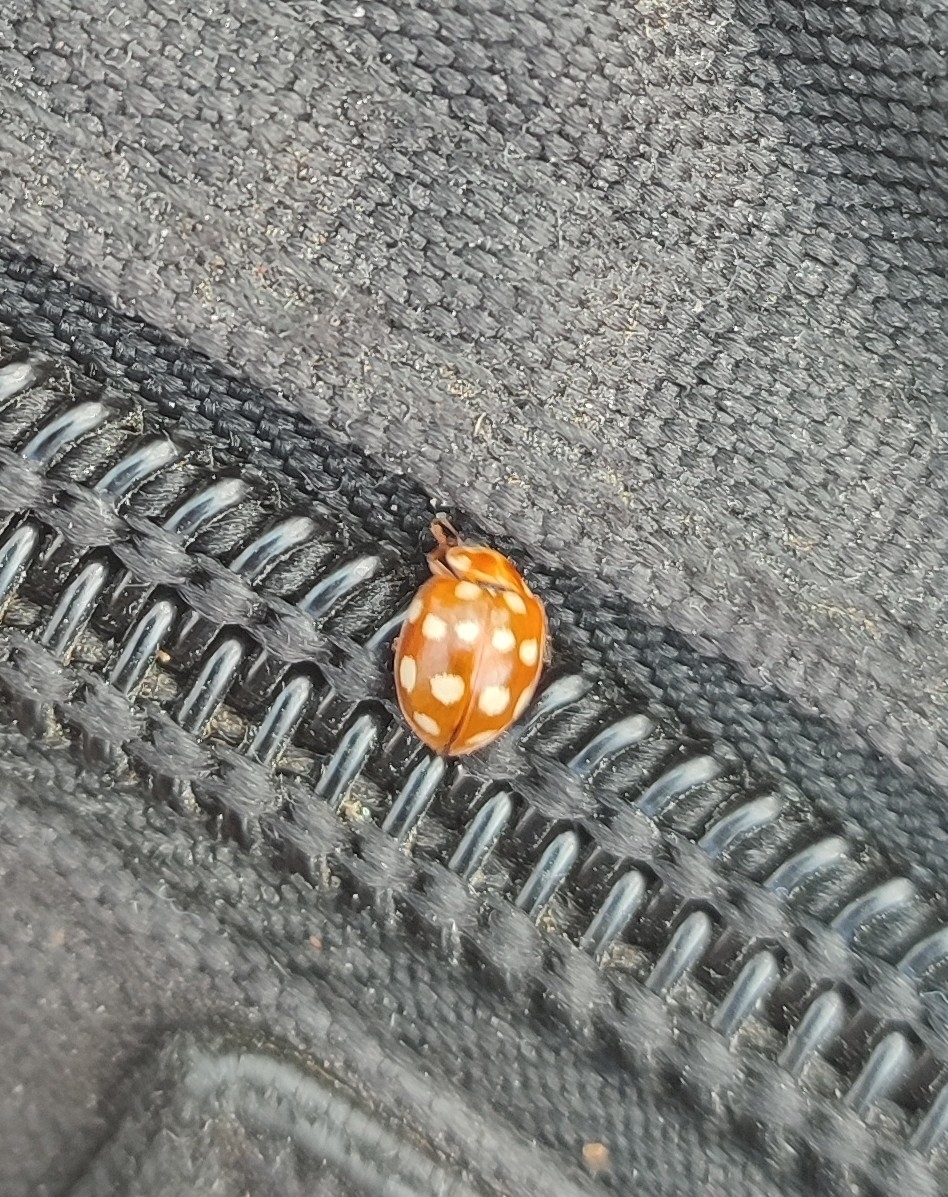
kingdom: Animalia
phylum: Arthropoda
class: Insecta
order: Coleoptera
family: Coccinellidae
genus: Calvia
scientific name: Calvia quatuordecimguttata
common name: Cream-spot ladybird
